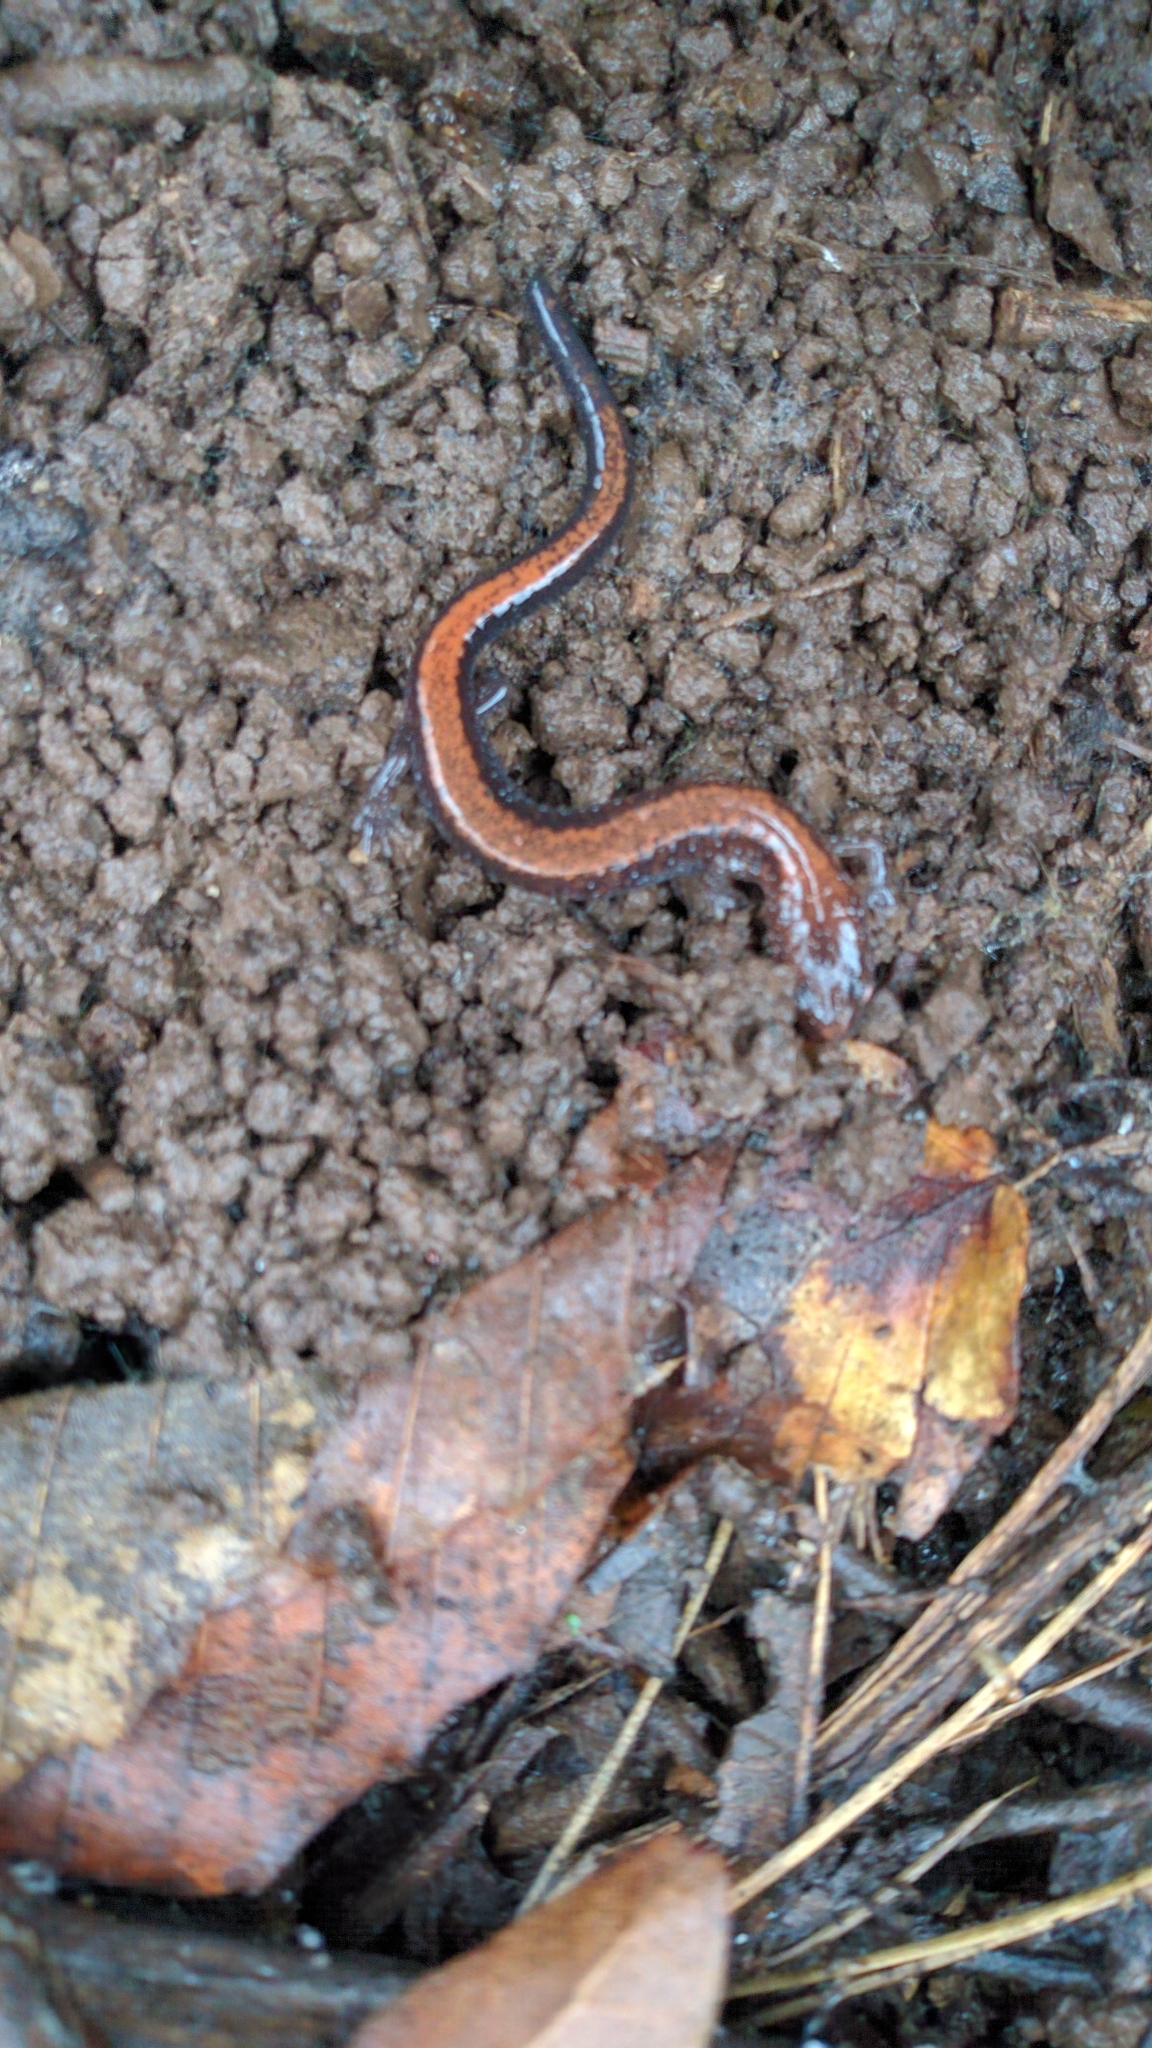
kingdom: Animalia
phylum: Chordata
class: Amphibia
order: Caudata
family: Plethodontidae
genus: Plethodon
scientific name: Plethodon cinereus
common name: Redback salamander
